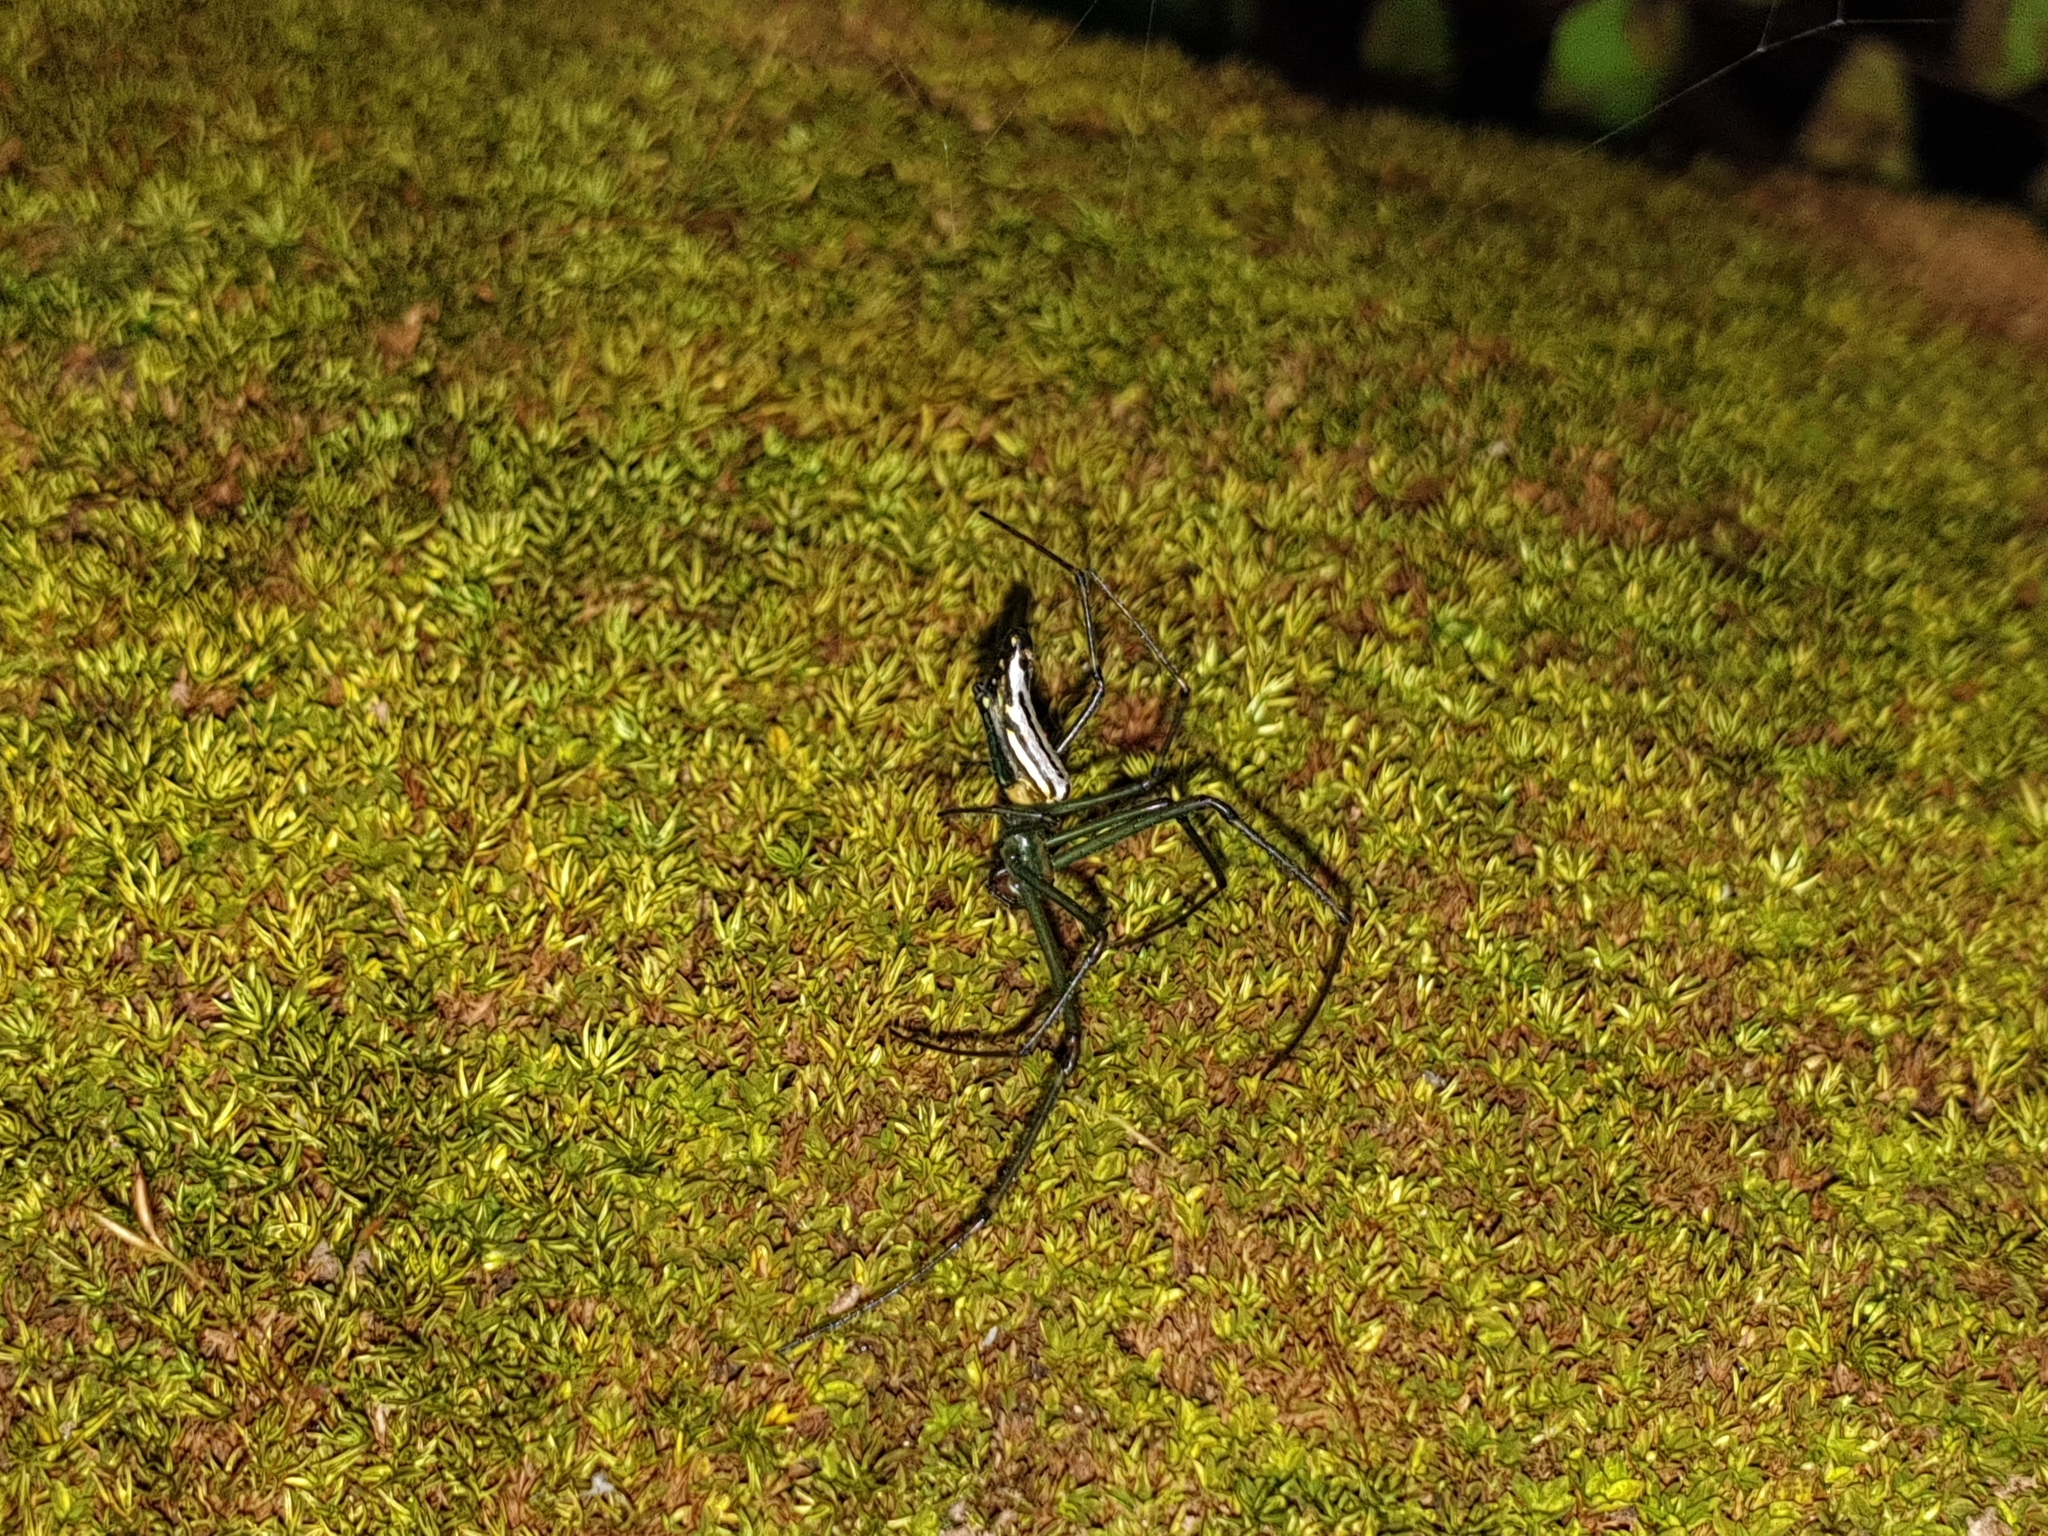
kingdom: Animalia
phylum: Arthropoda
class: Arachnida
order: Araneae
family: Tetragnathidae
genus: Leucauge
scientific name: Leucauge decorata
